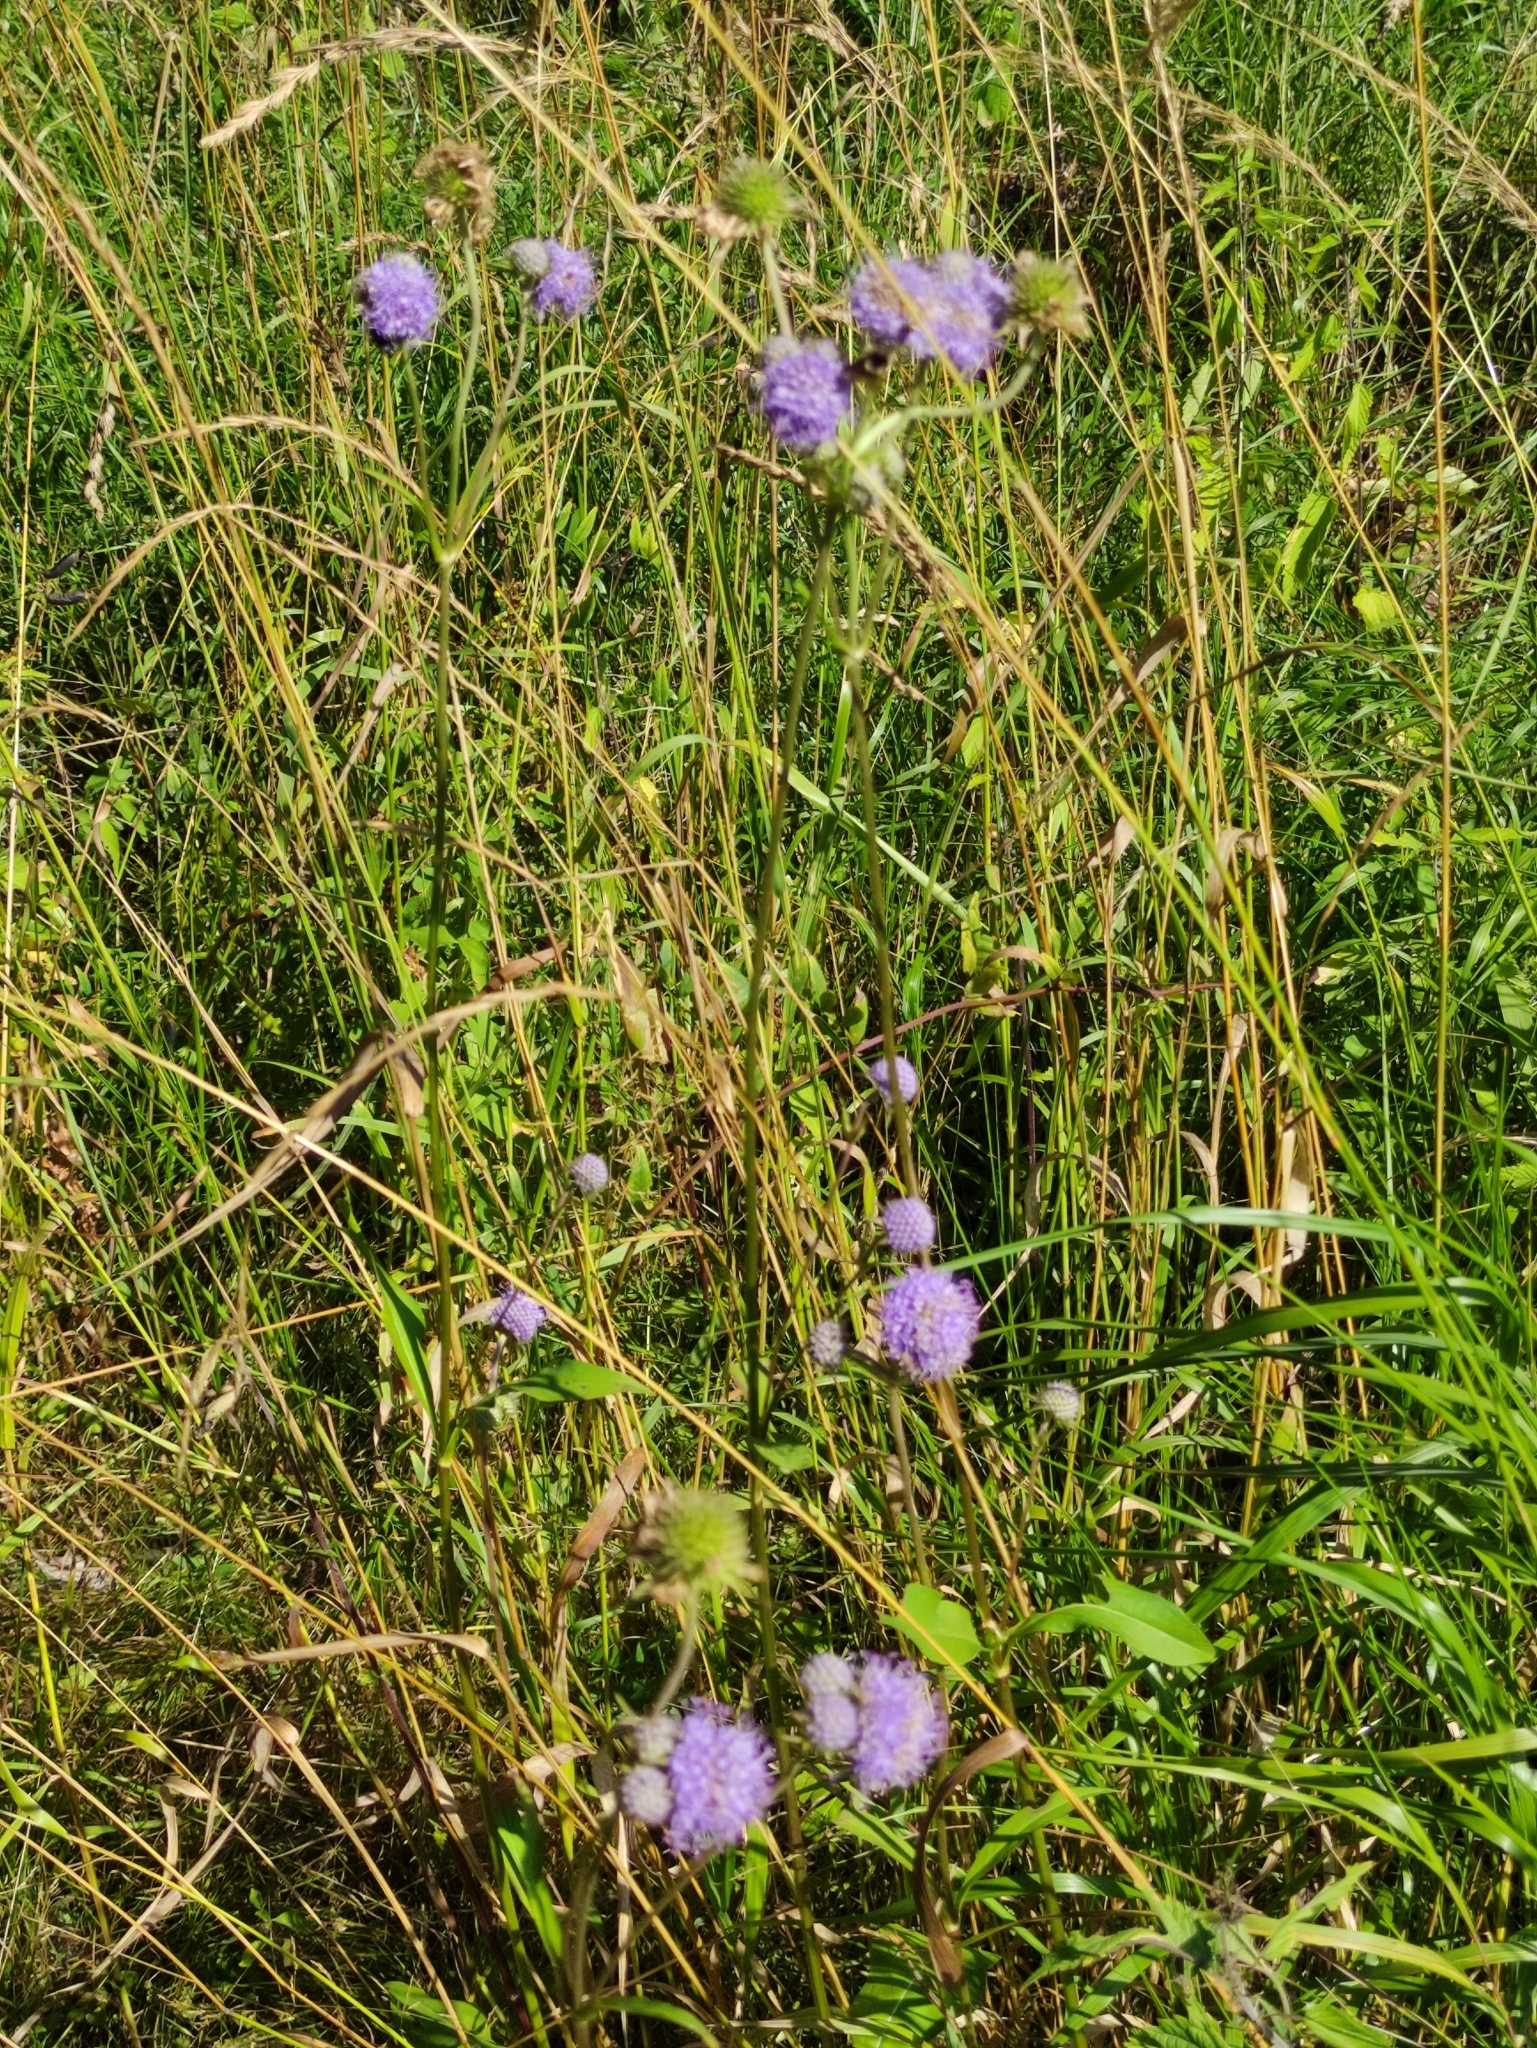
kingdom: Plantae
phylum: Tracheophyta
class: Magnoliopsida
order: Dipsacales
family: Caprifoliaceae
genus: Succisa
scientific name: Succisa pratensis
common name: Devil's-bit
